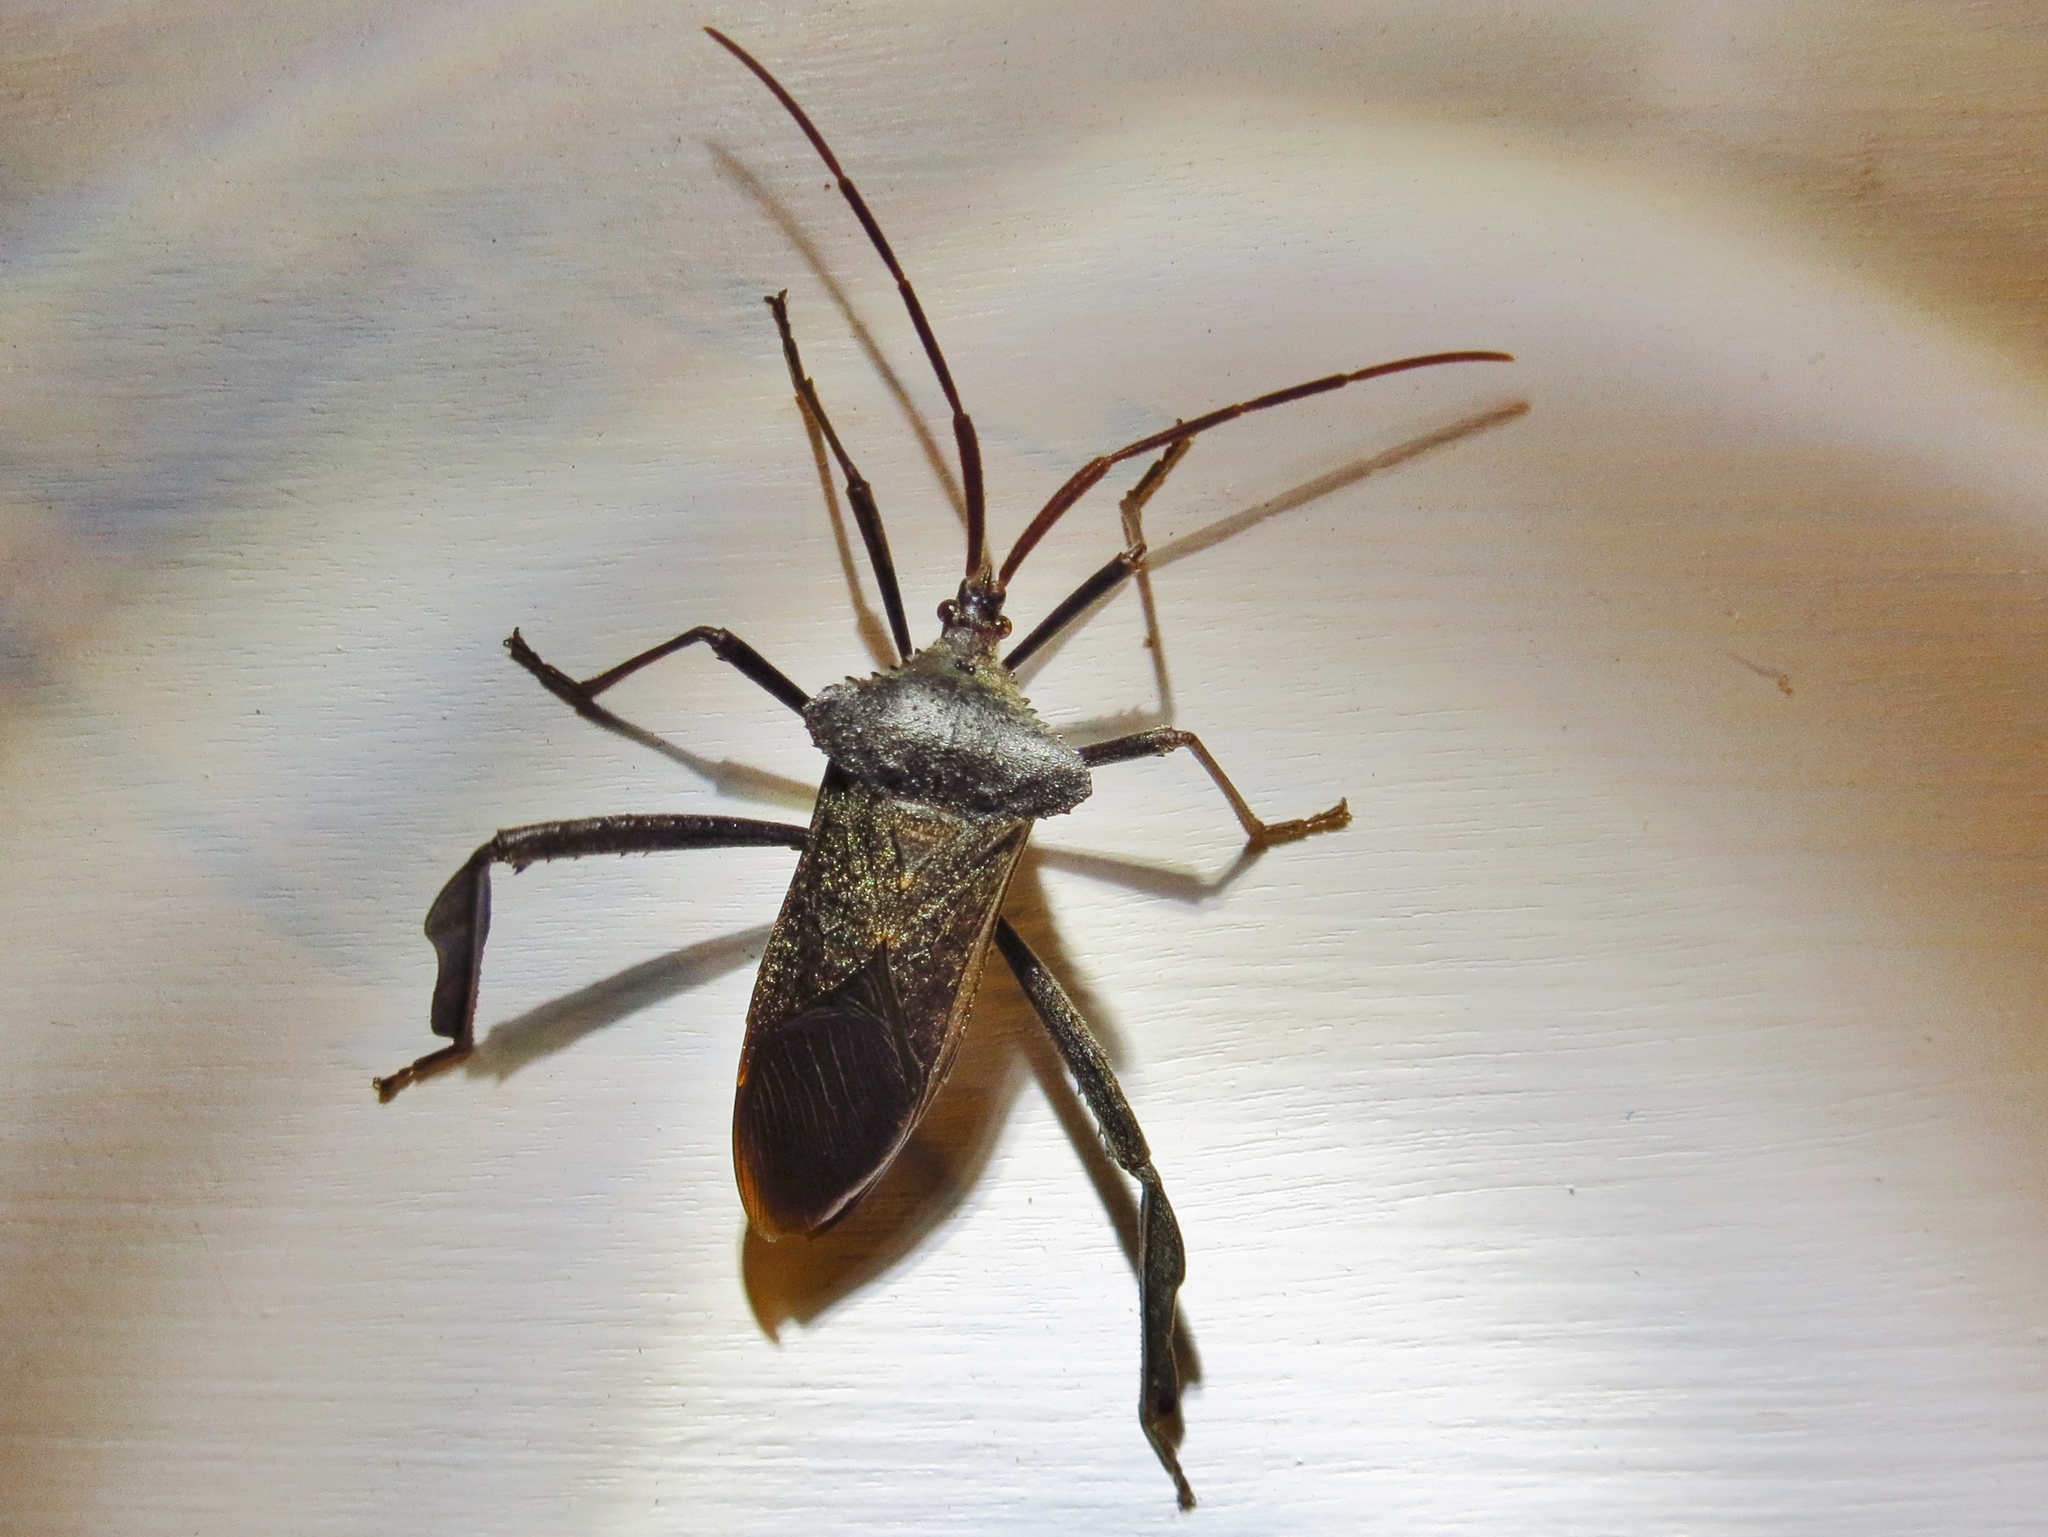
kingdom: Animalia
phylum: Arthropoda
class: Insecta
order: Hemiptera
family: Coreidae
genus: Acanthocephala
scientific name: Acanthocephala declivis
